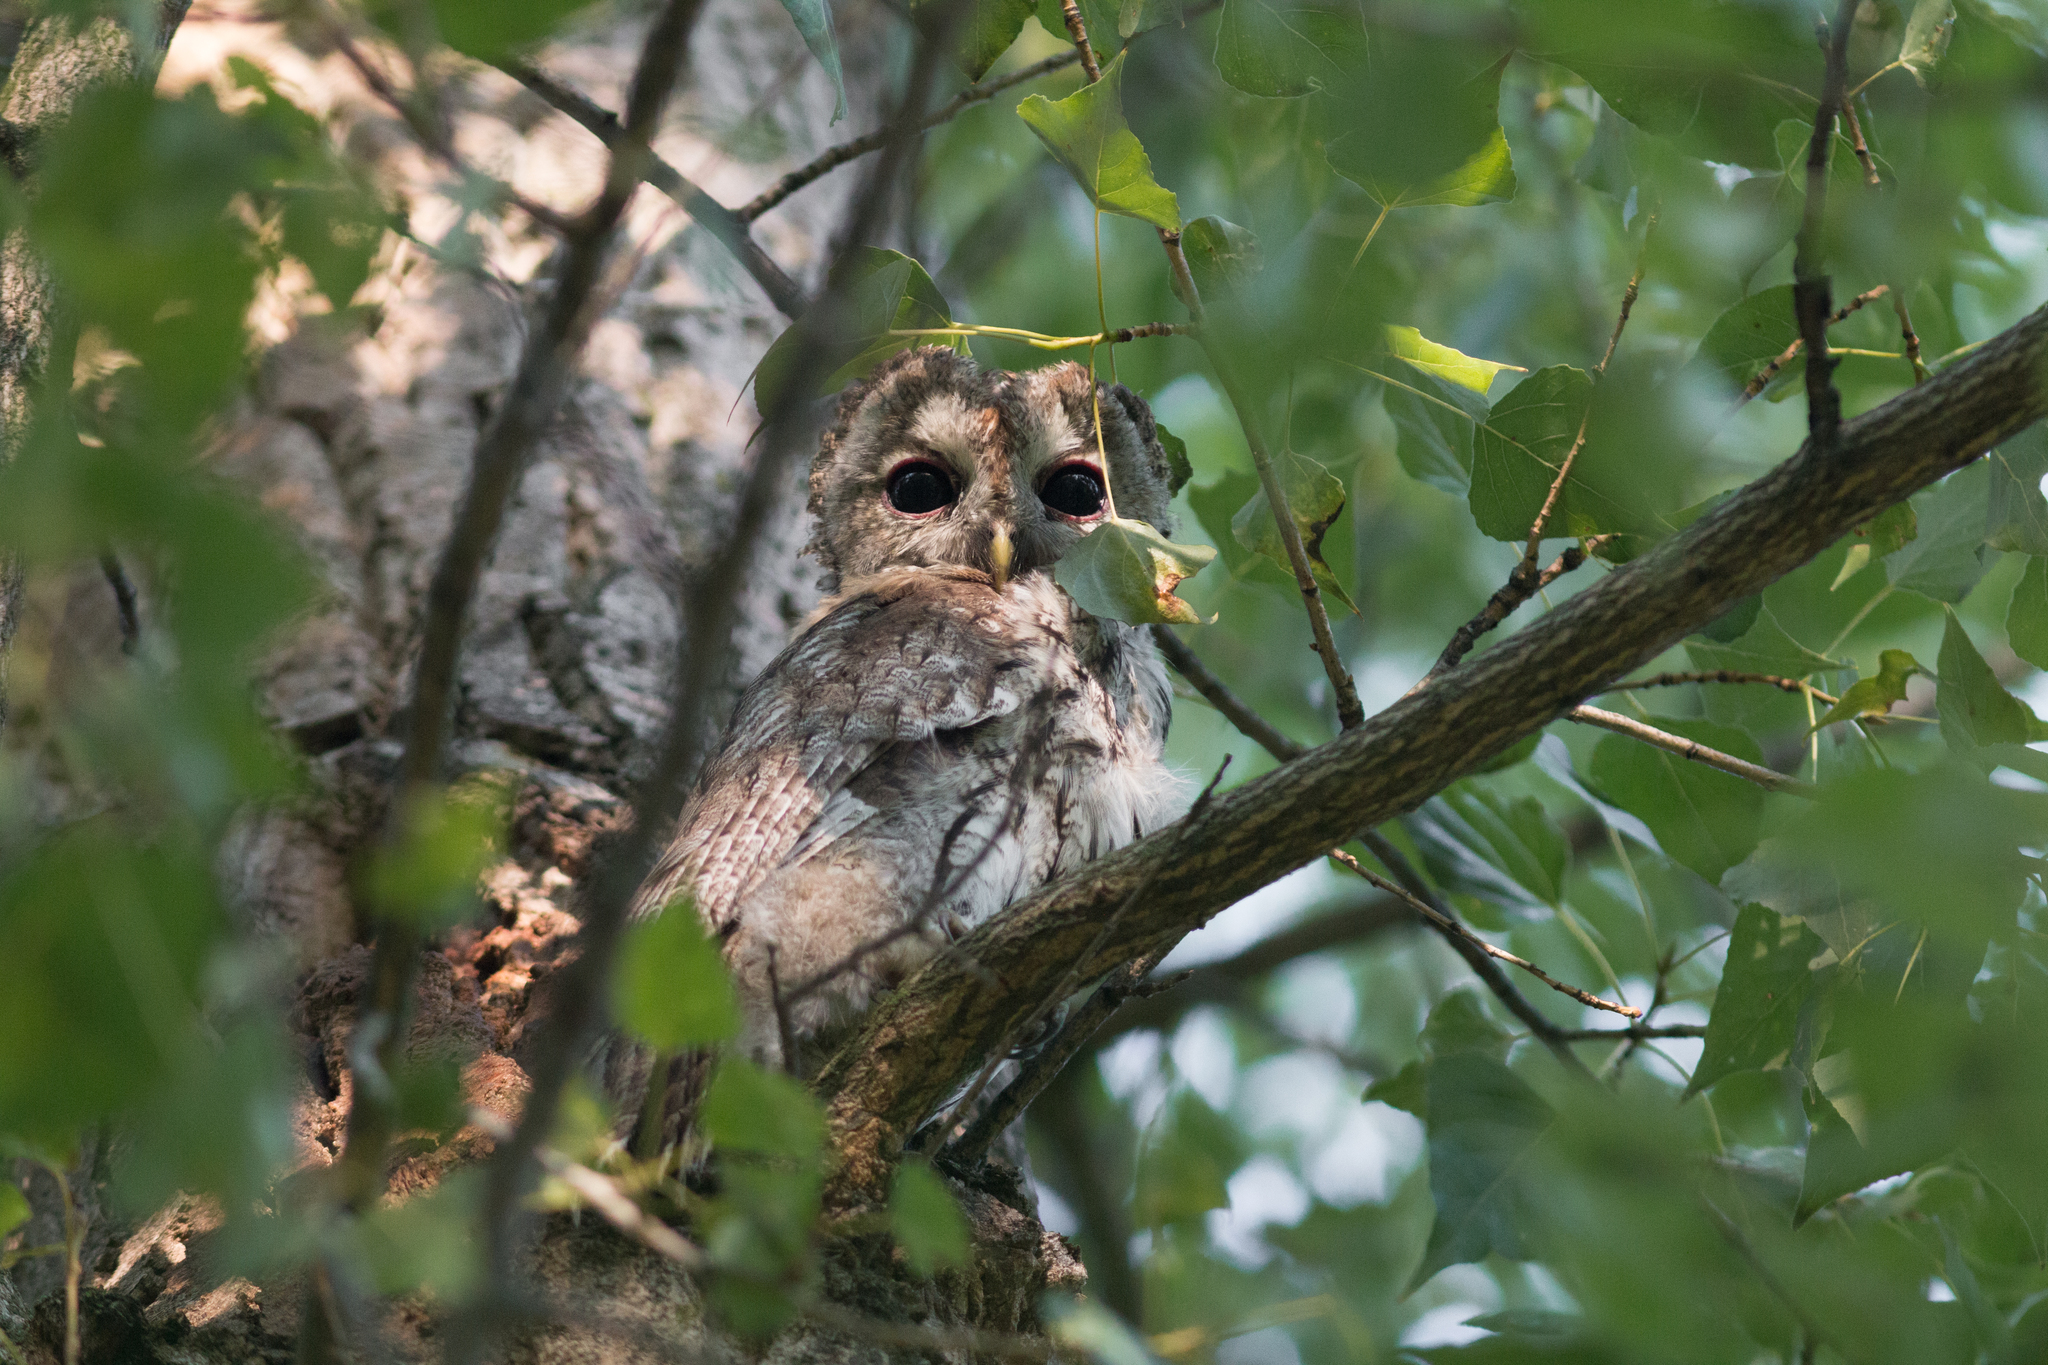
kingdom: Animalia
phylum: Chordata
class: Aves
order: Strigiformes
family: Strigidae
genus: Strix
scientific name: Strix aluco
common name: Tawny owl
